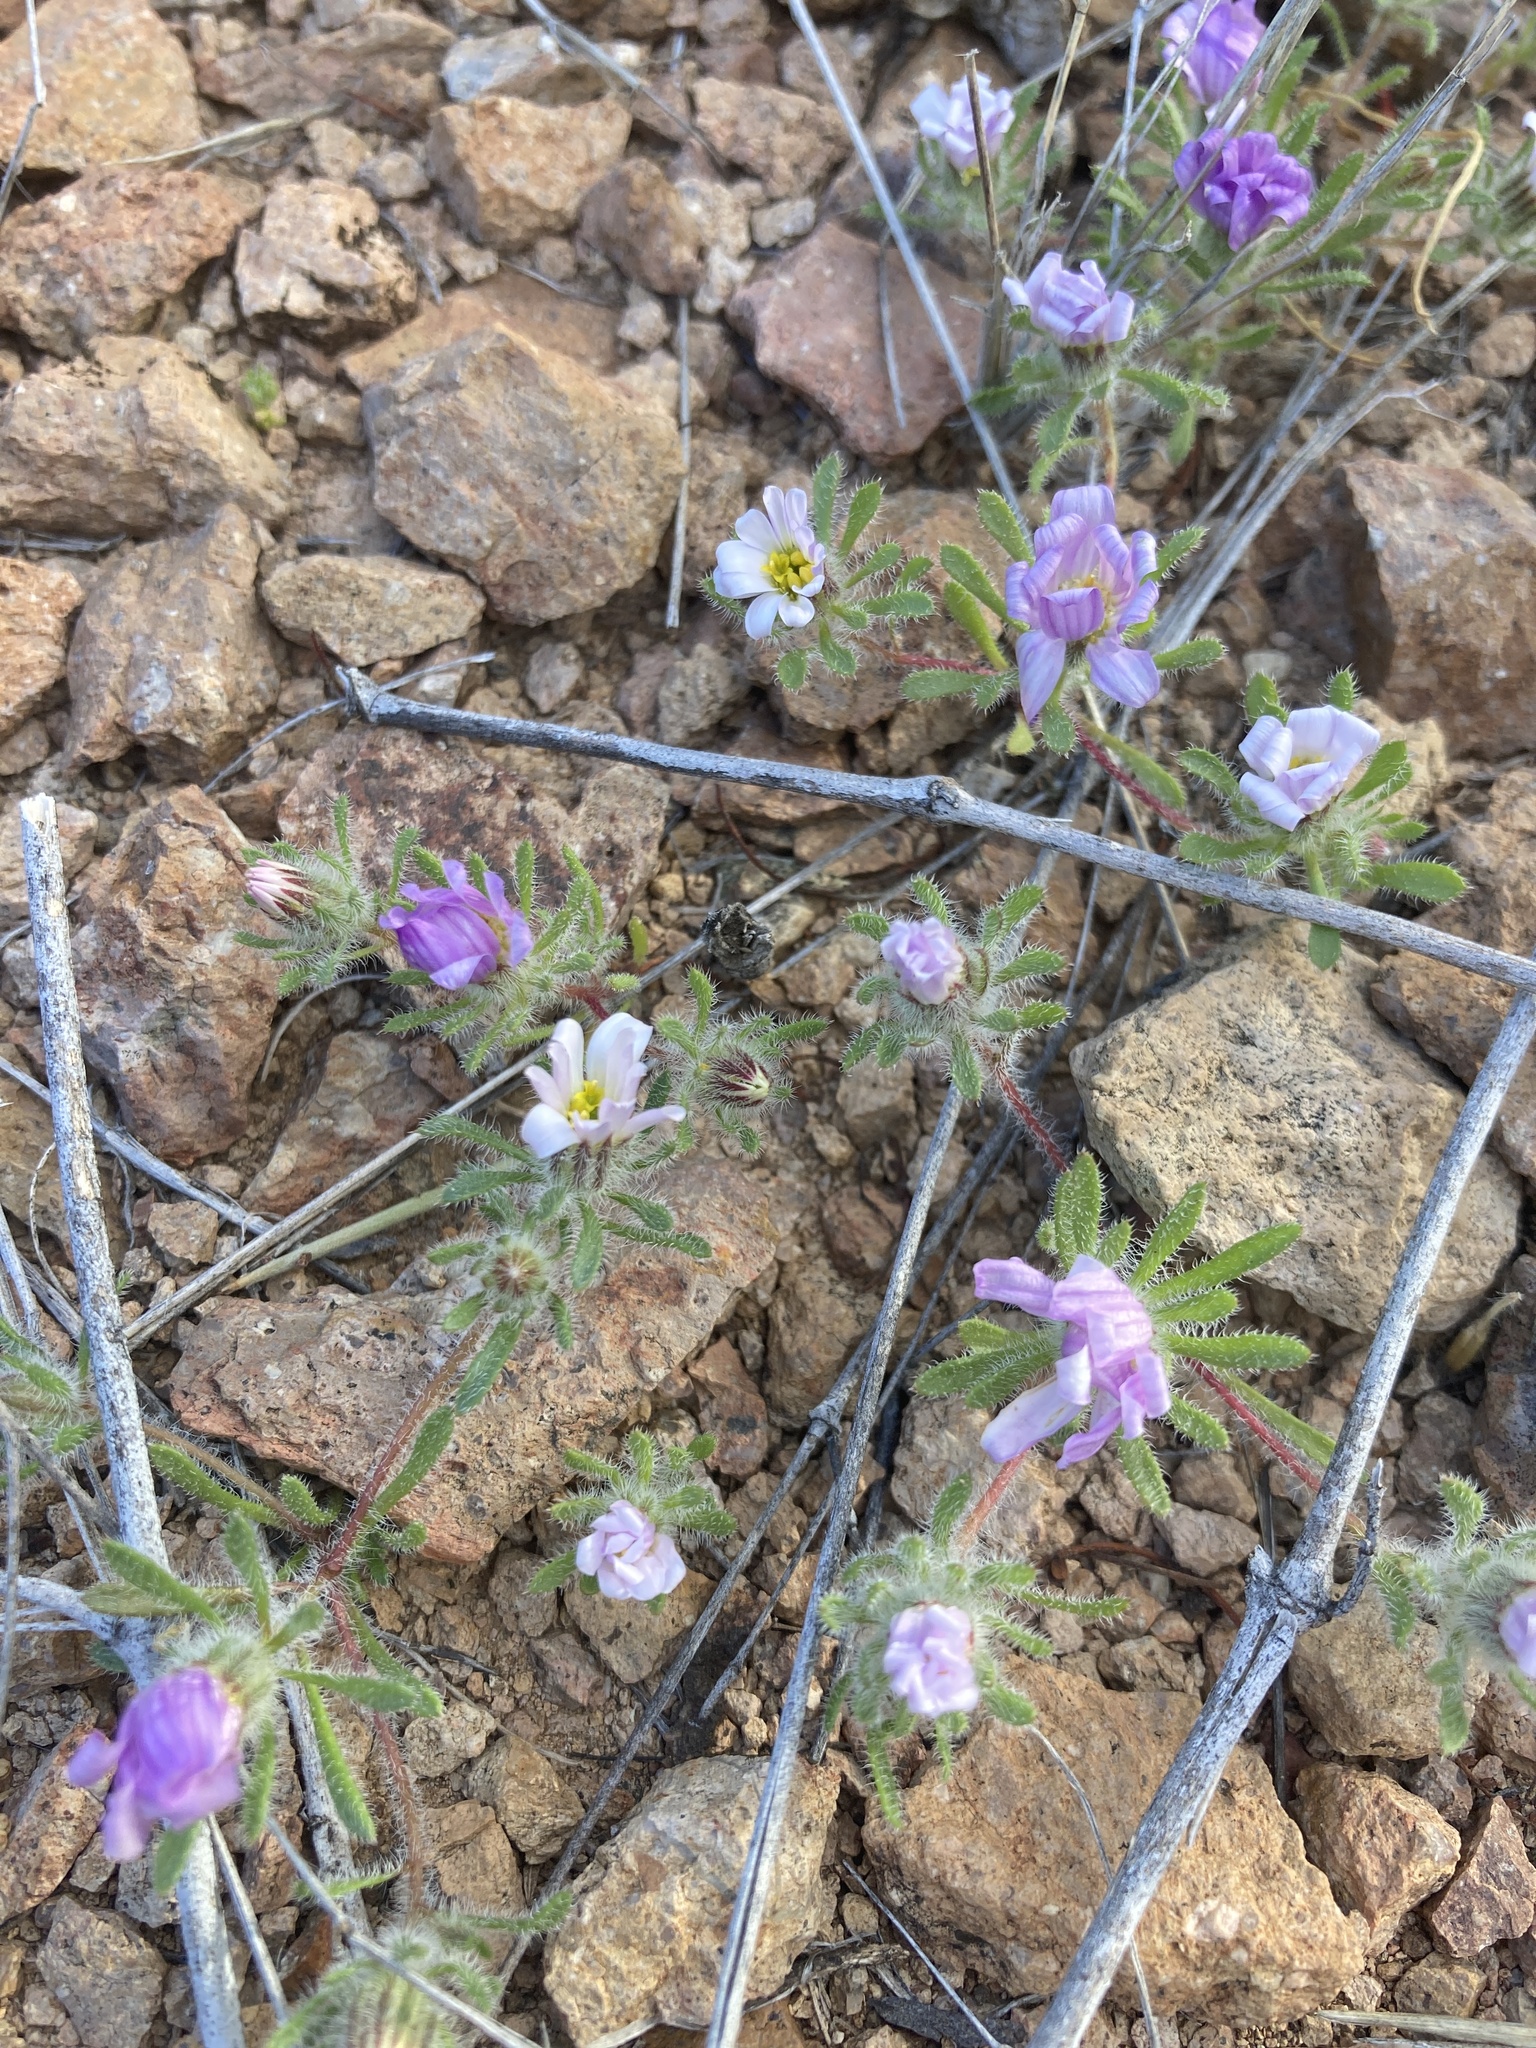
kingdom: Plantae
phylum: Tracheophyta
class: Magnoliopsida
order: Asterales
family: Asteraceae
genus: Monoptilon
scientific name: Monoptilon bellioides
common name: Bristly desertstar
